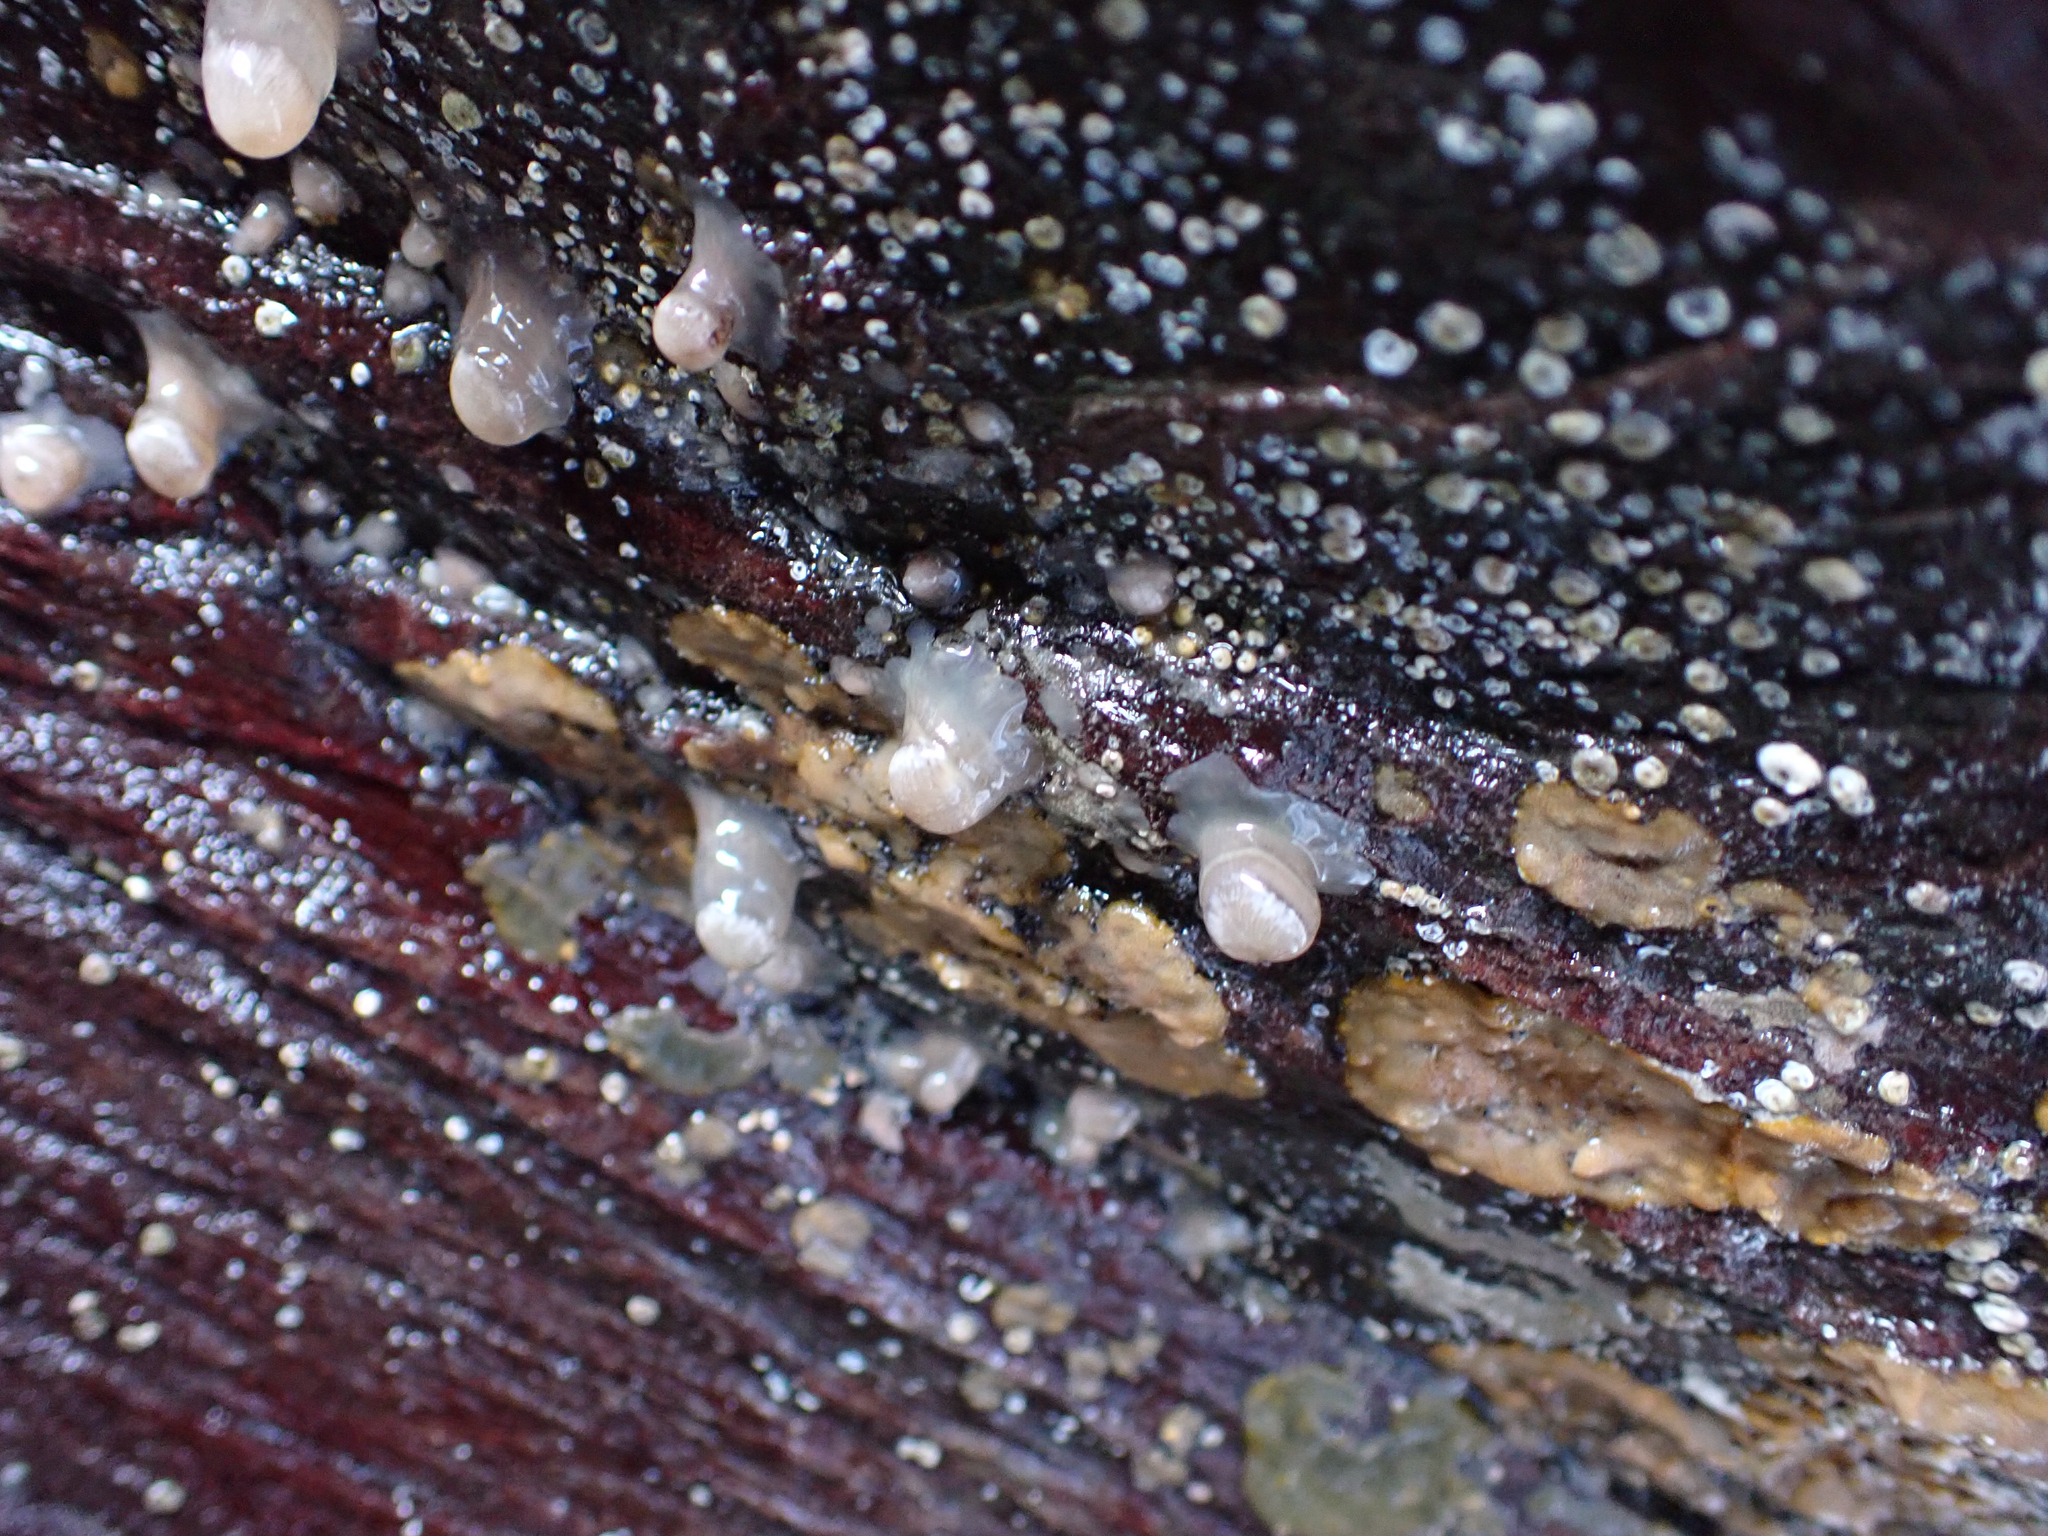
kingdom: Animalia
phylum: Cnidaria
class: Anthozoa
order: Actiniaria
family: Metridiidae
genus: Metridium
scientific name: Metridium senile
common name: Clonal plumose anemone
